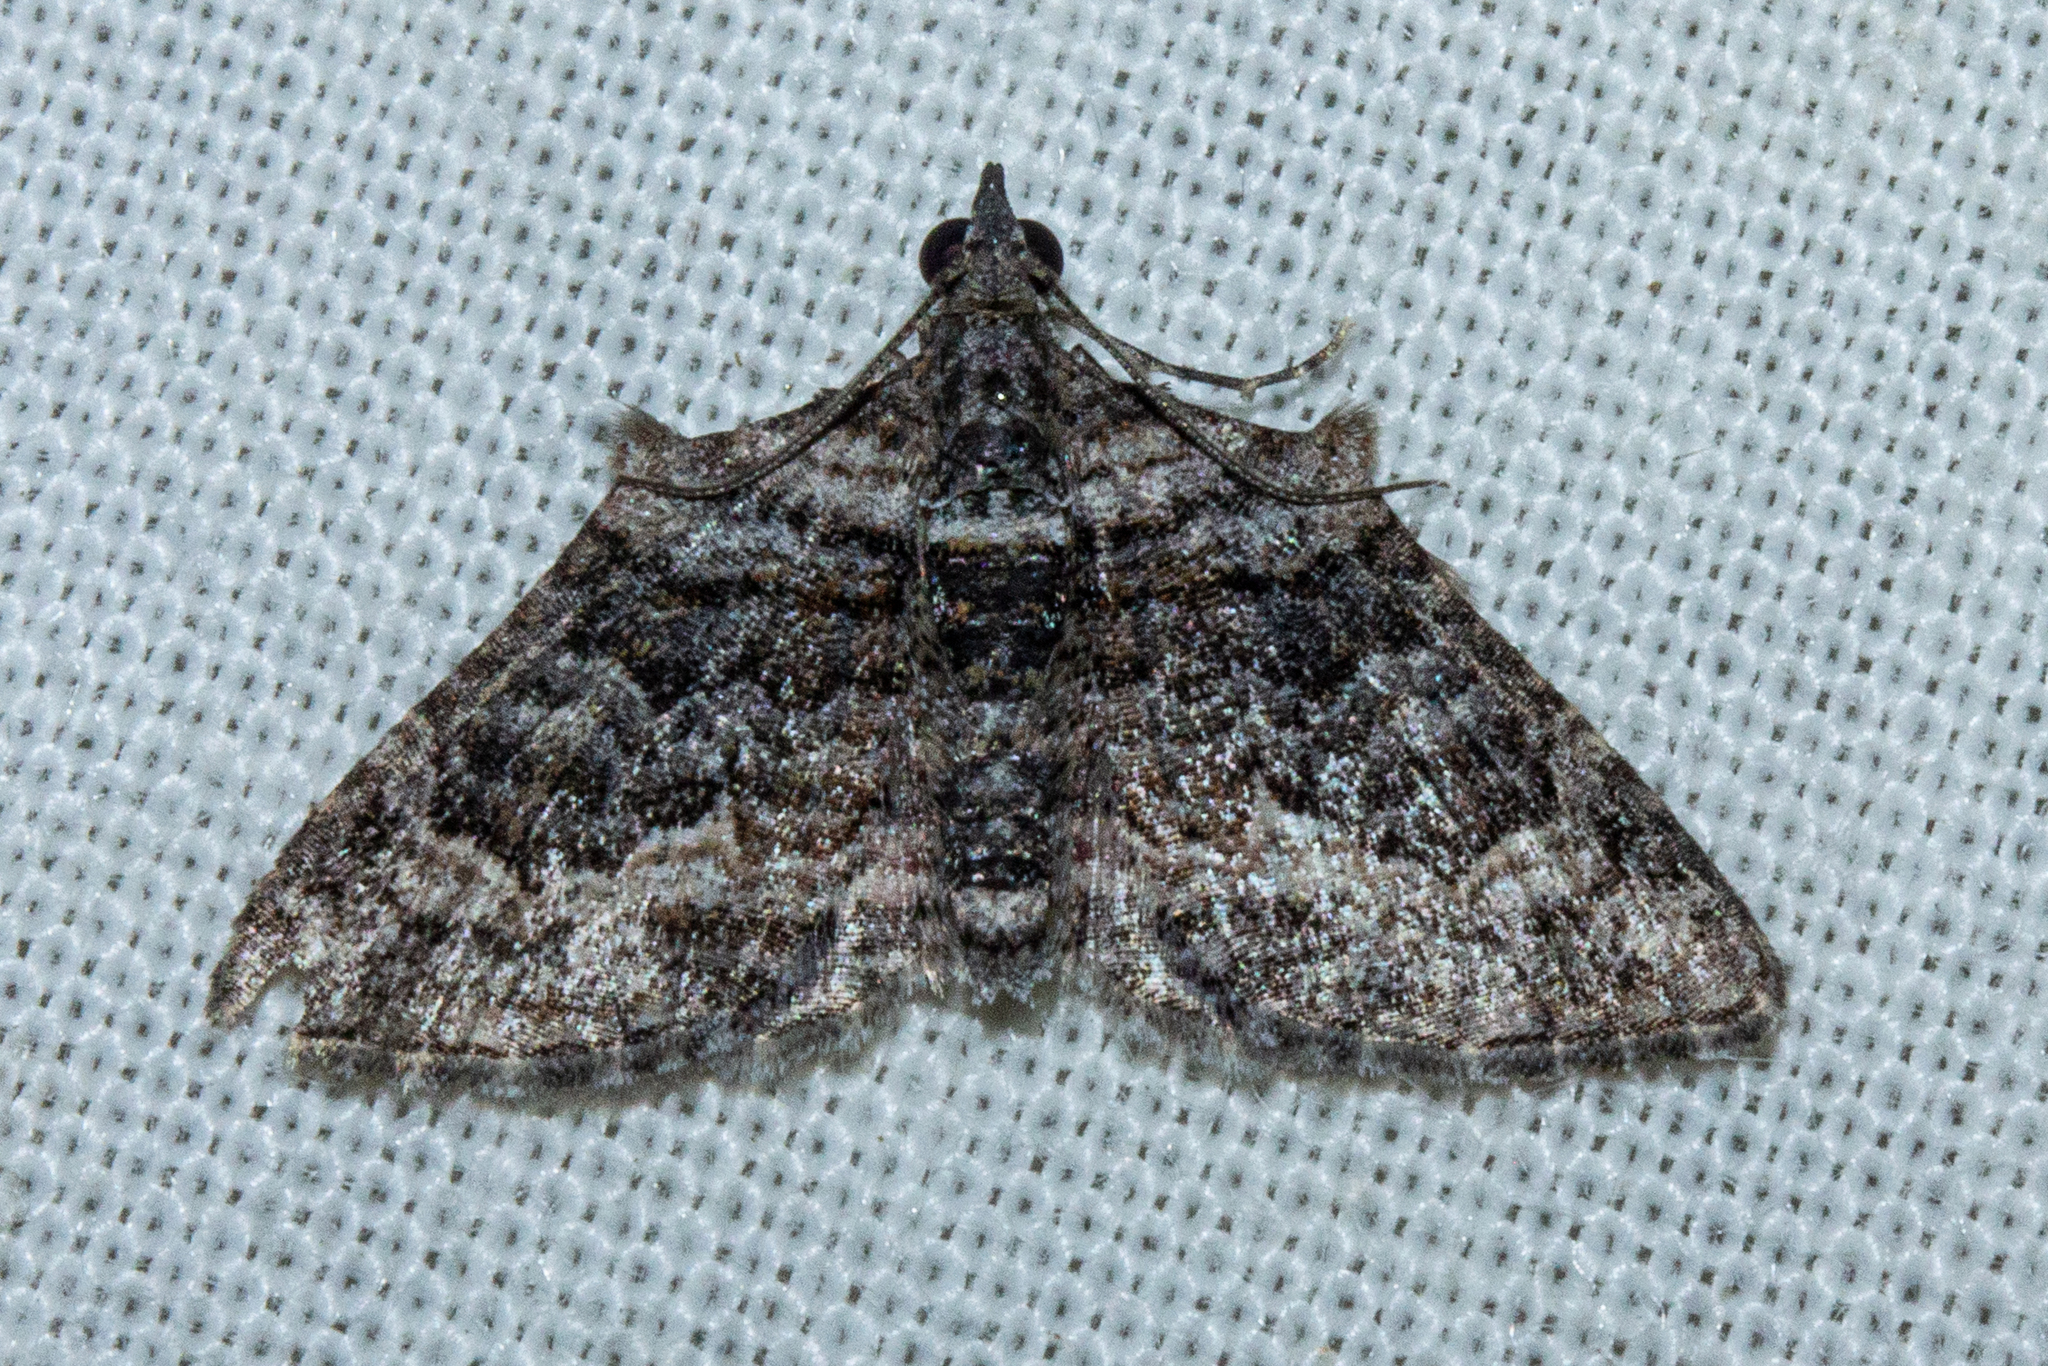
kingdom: Animalia
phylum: Arthropoda
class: Insecta
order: Lepidoptera
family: Geometridae
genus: Phrissogonus
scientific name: Phrissogonus laticostata
